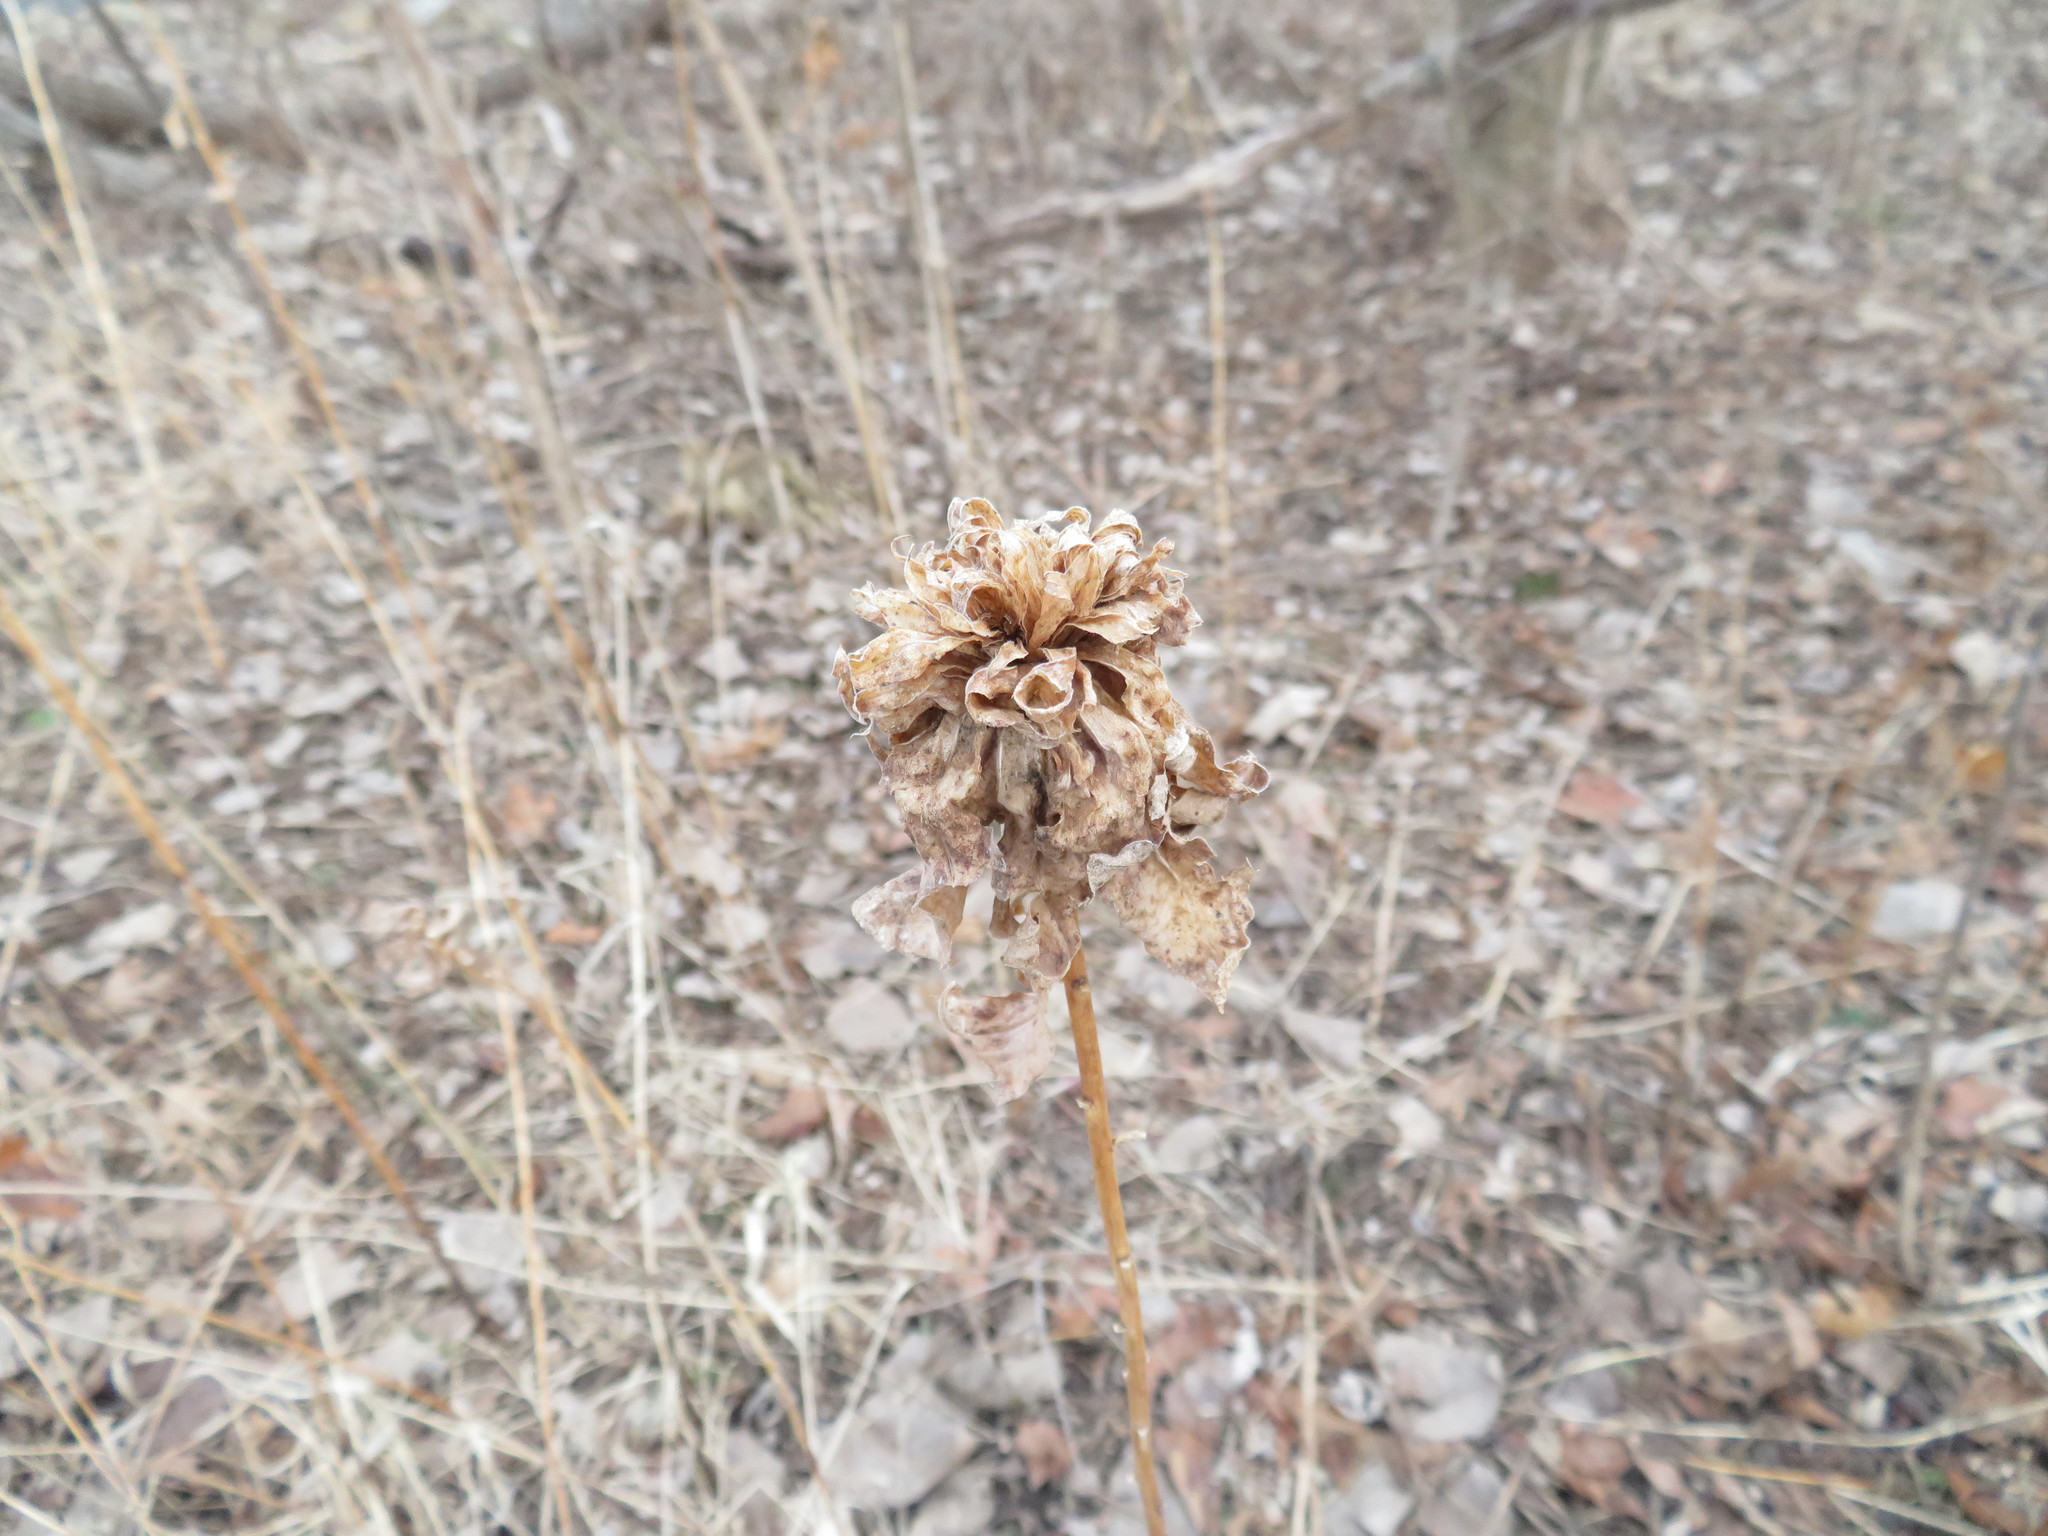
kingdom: Animalia
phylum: Arthropoda
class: Insecta
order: Diptera
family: Cecidomyiidae
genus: Rhopalomyia
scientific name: Rhopalomyia solidaginis
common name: Goldenrod bunch gall midge
